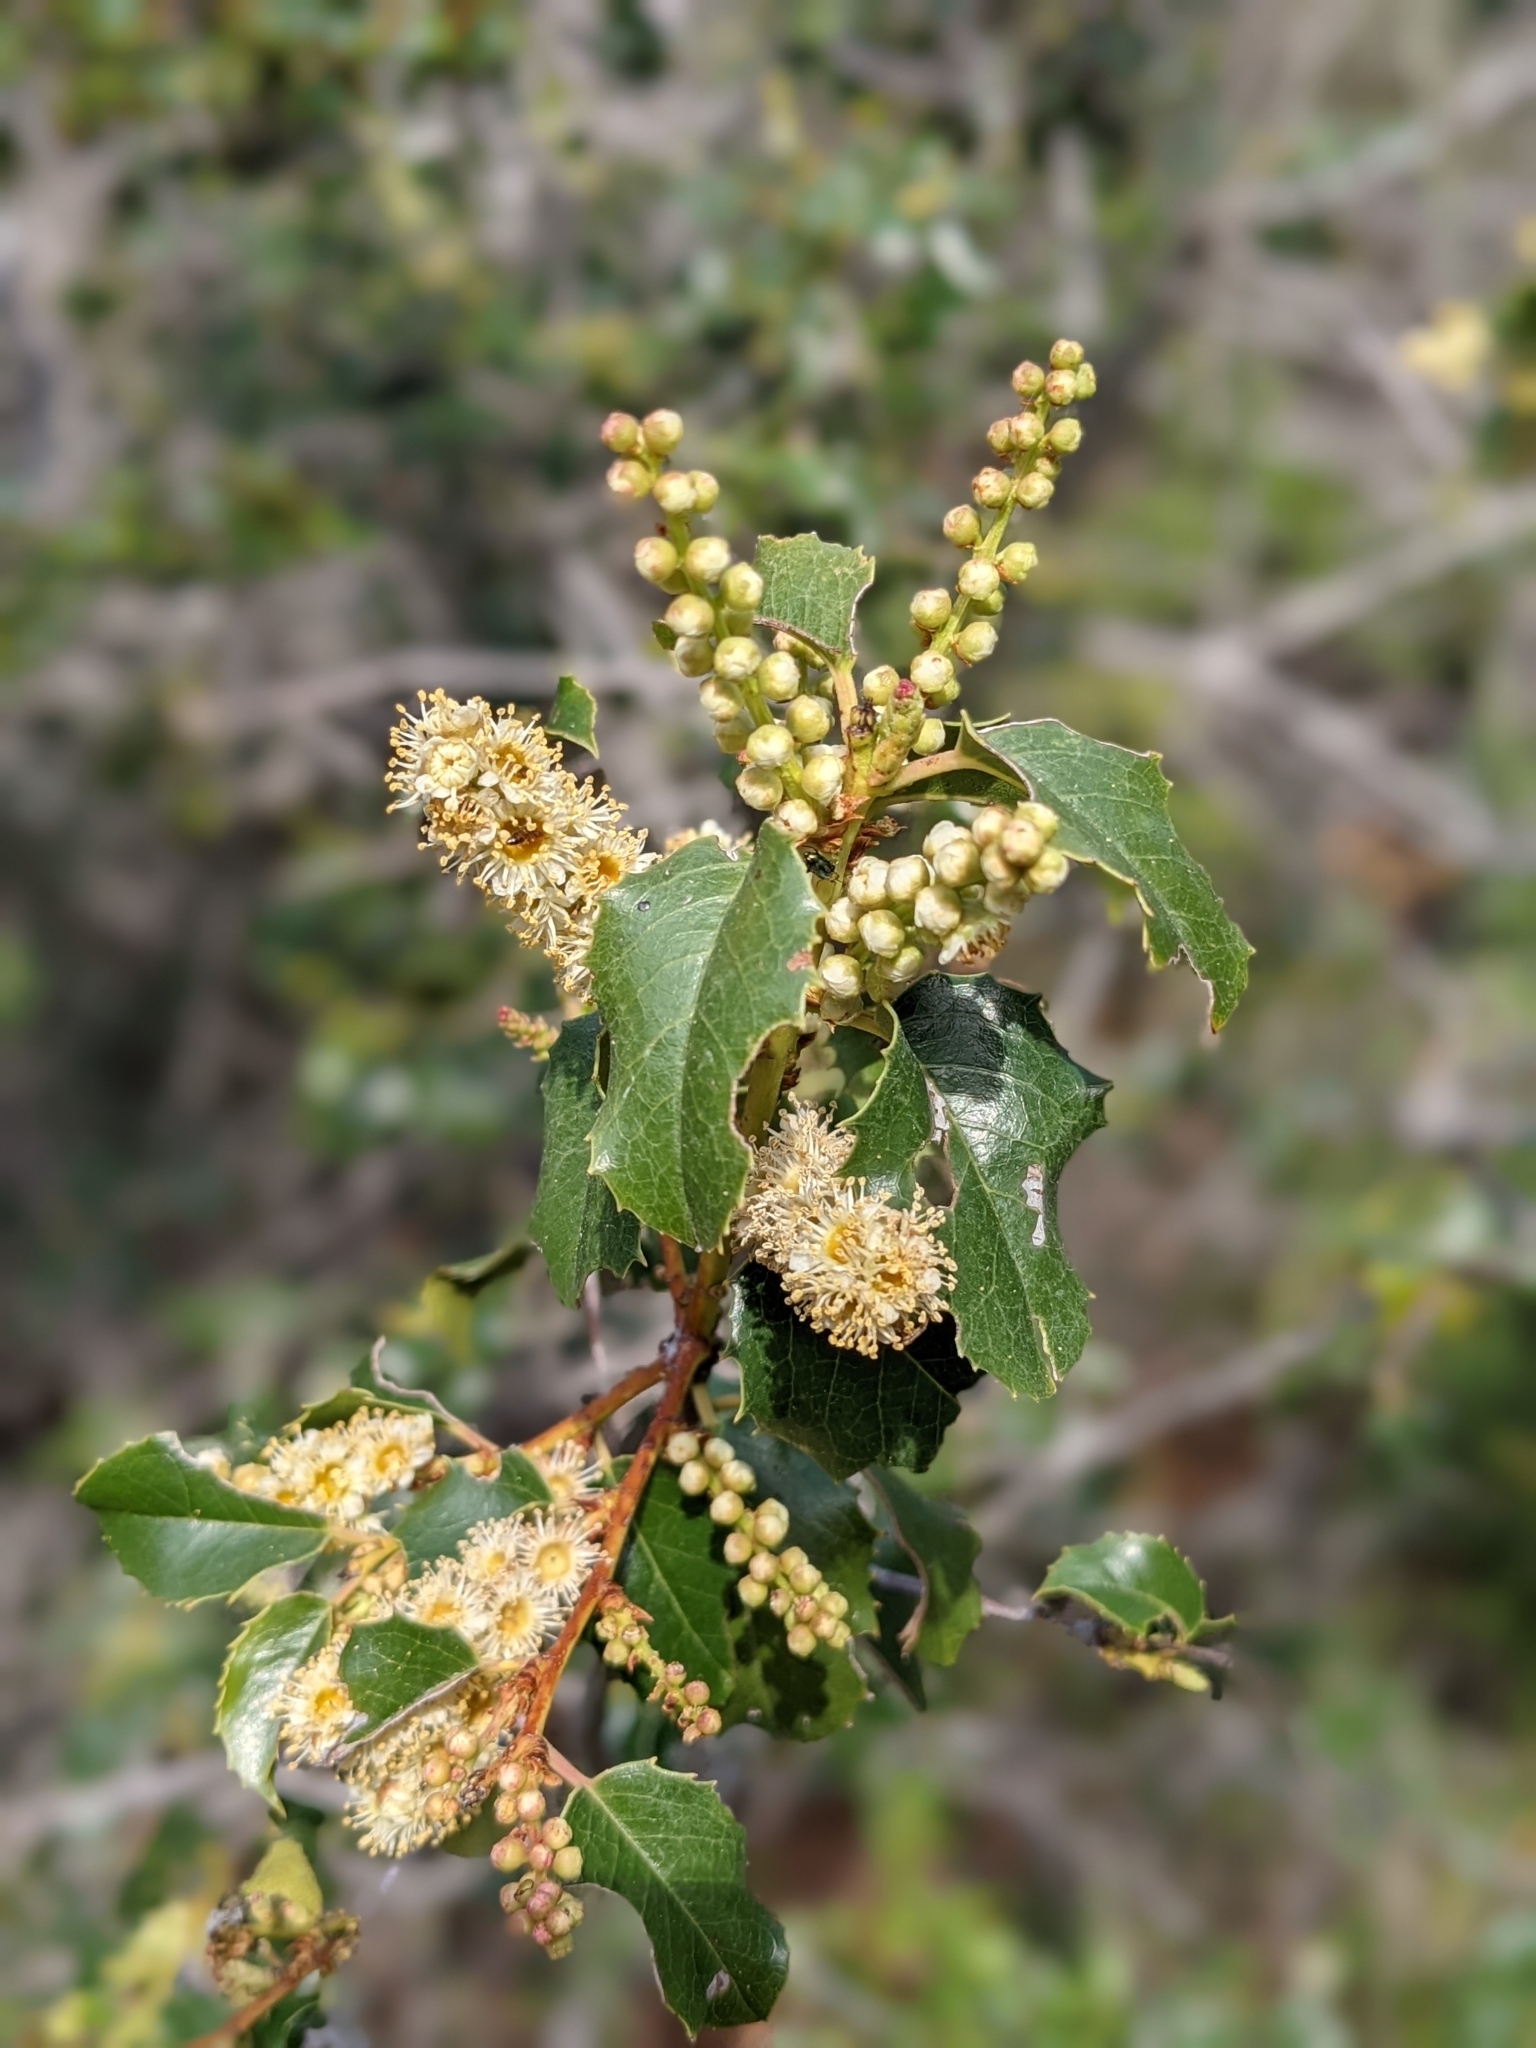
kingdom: Plantae
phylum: Tracheophyta
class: Magnoliopsida
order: Rosales
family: Rosaceae
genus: Prunus
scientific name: Prunus ilicifolia
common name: Hollyleaf cherry
